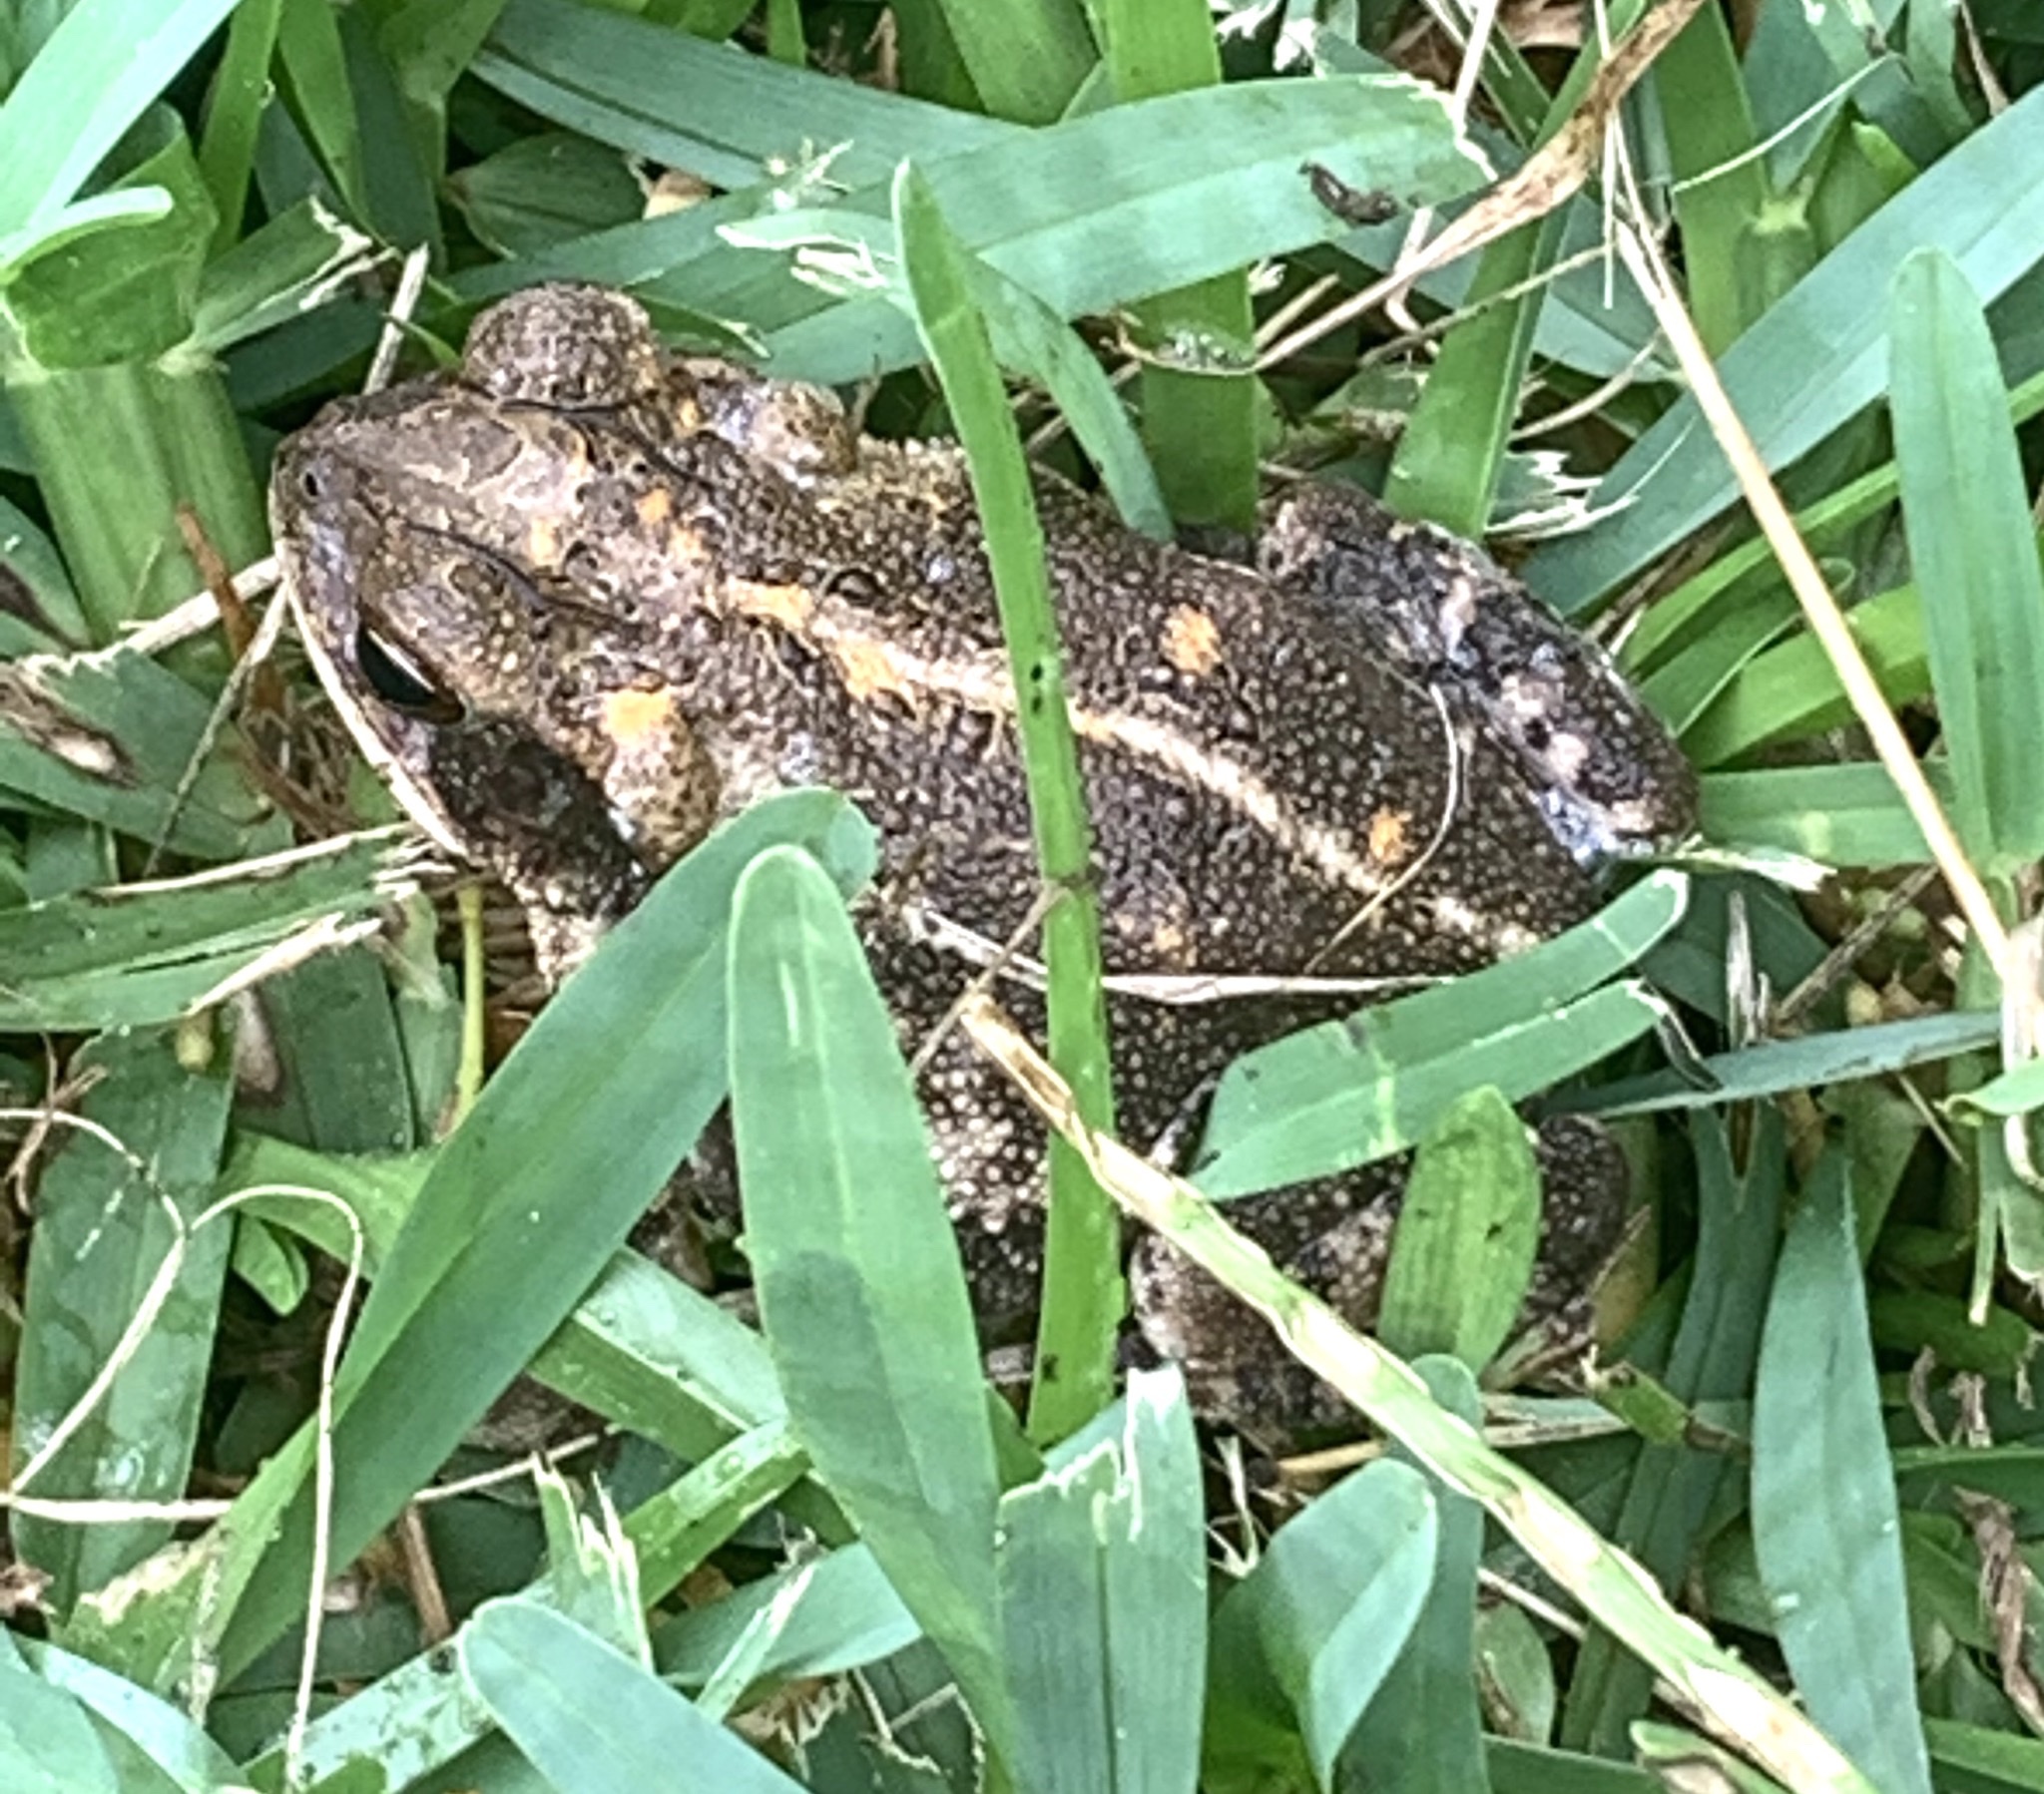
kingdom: Animalia
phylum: Chordata
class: Amphibia
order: Anura
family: Bufonidae
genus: Incilius
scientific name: Incilius nebulifer
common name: Gulf coast toad
